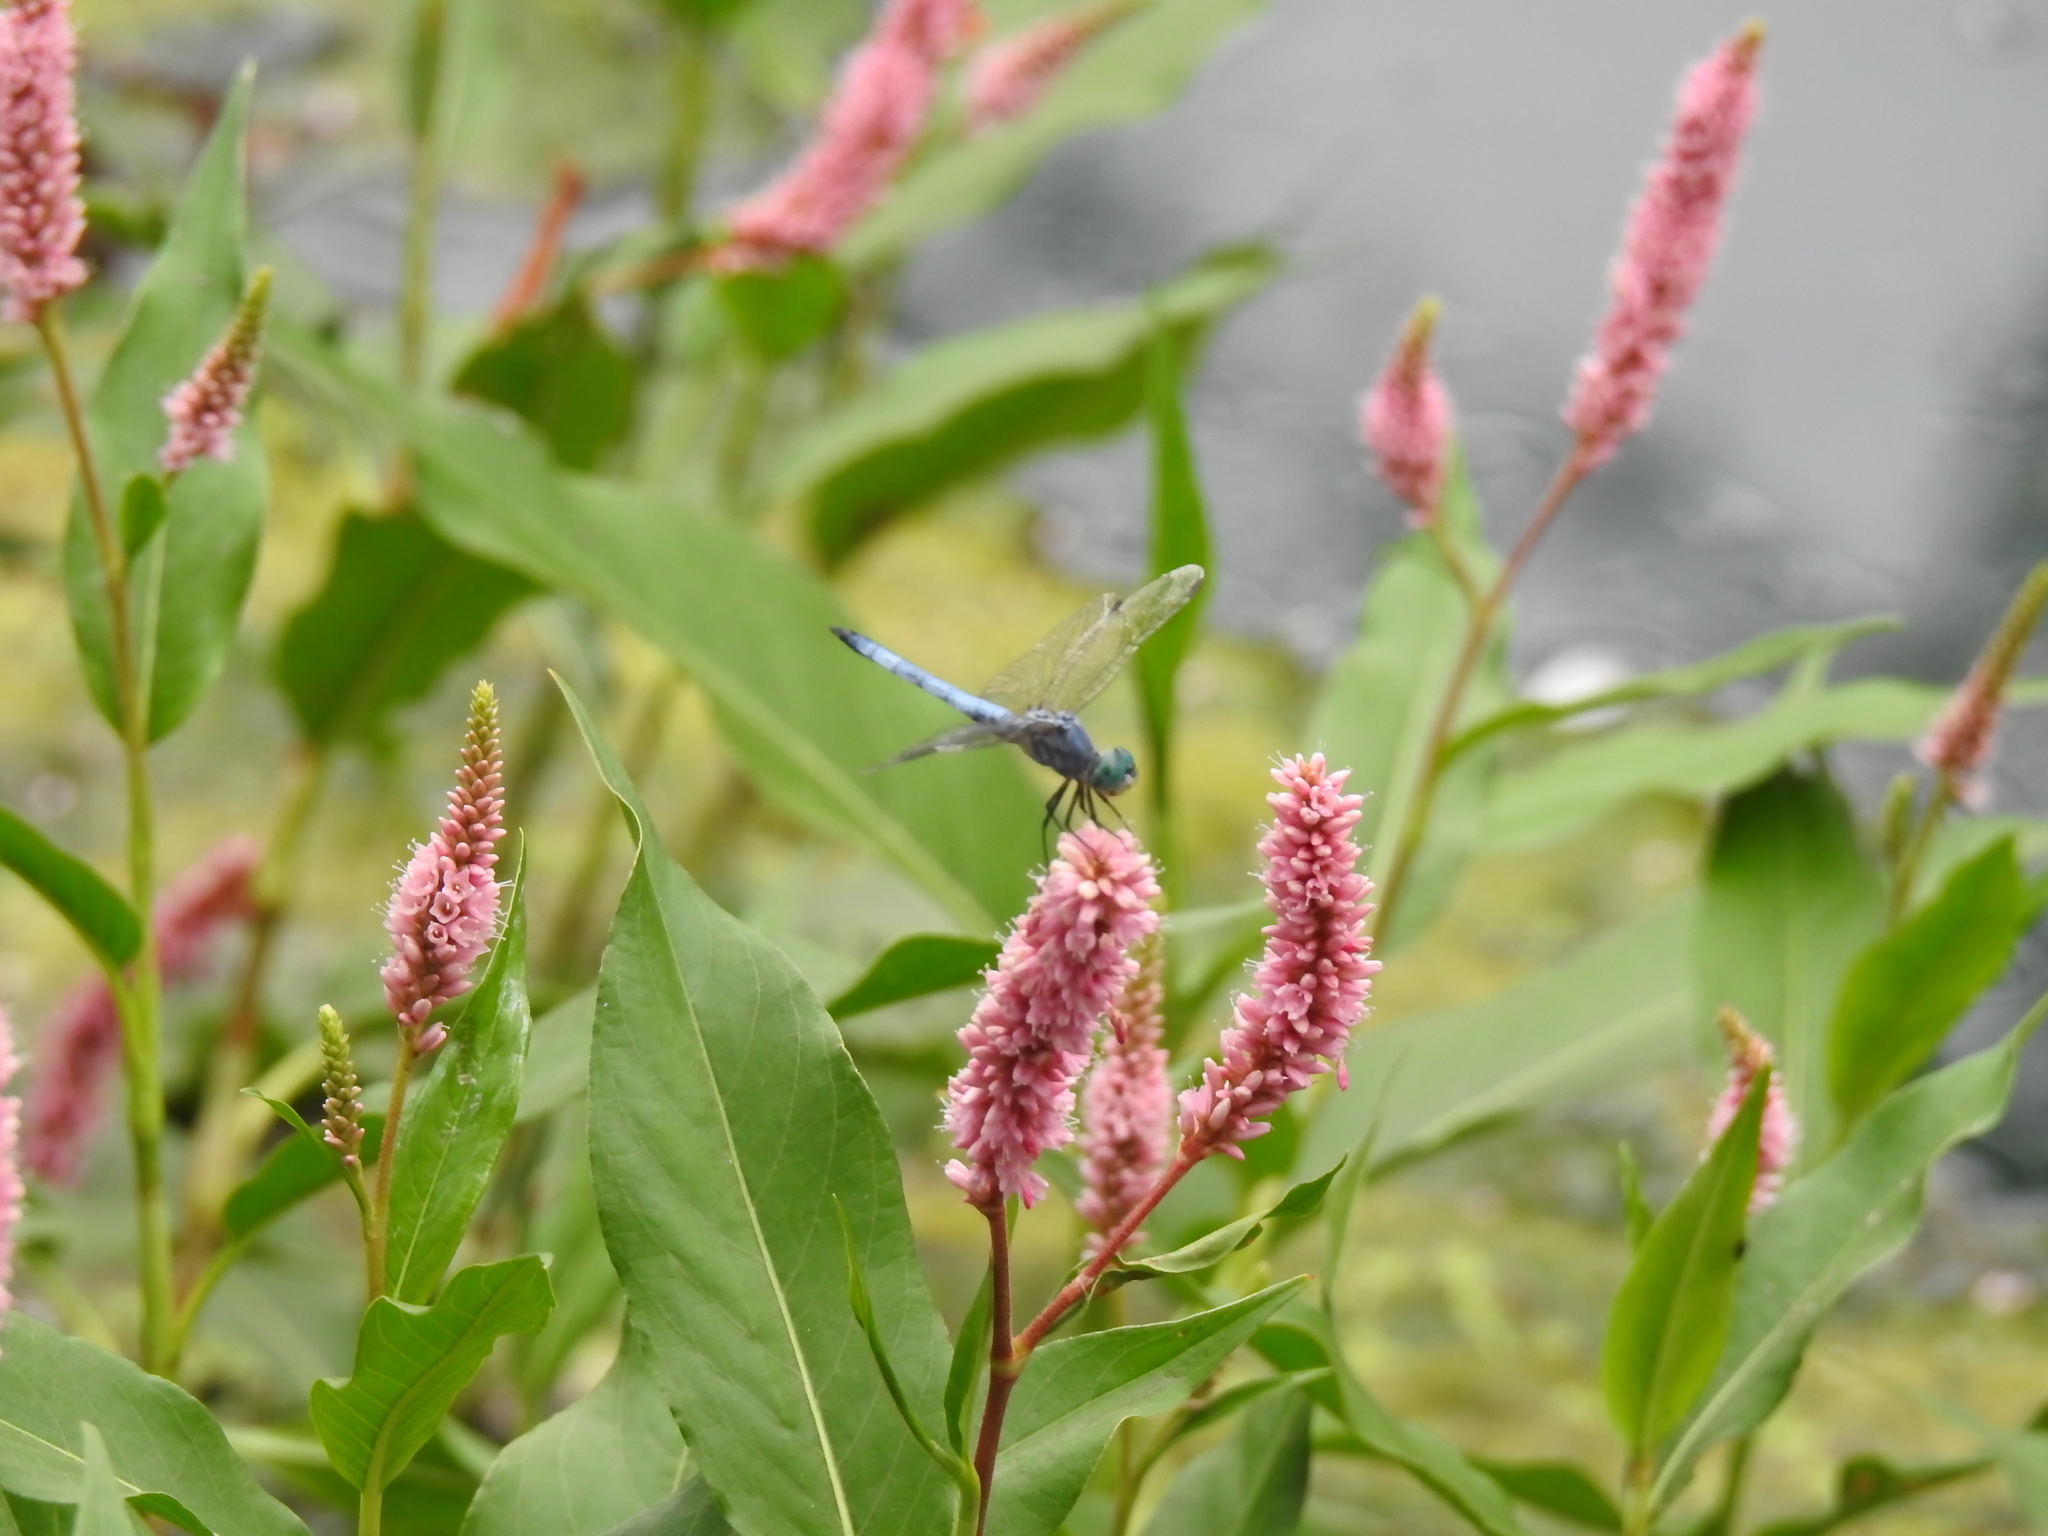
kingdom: Animalia
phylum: Arthropoda
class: Insecta
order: Odonata
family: Libellulidae
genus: Pachydiplax
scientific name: Pachydiplax longipennis
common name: Blue dasher
